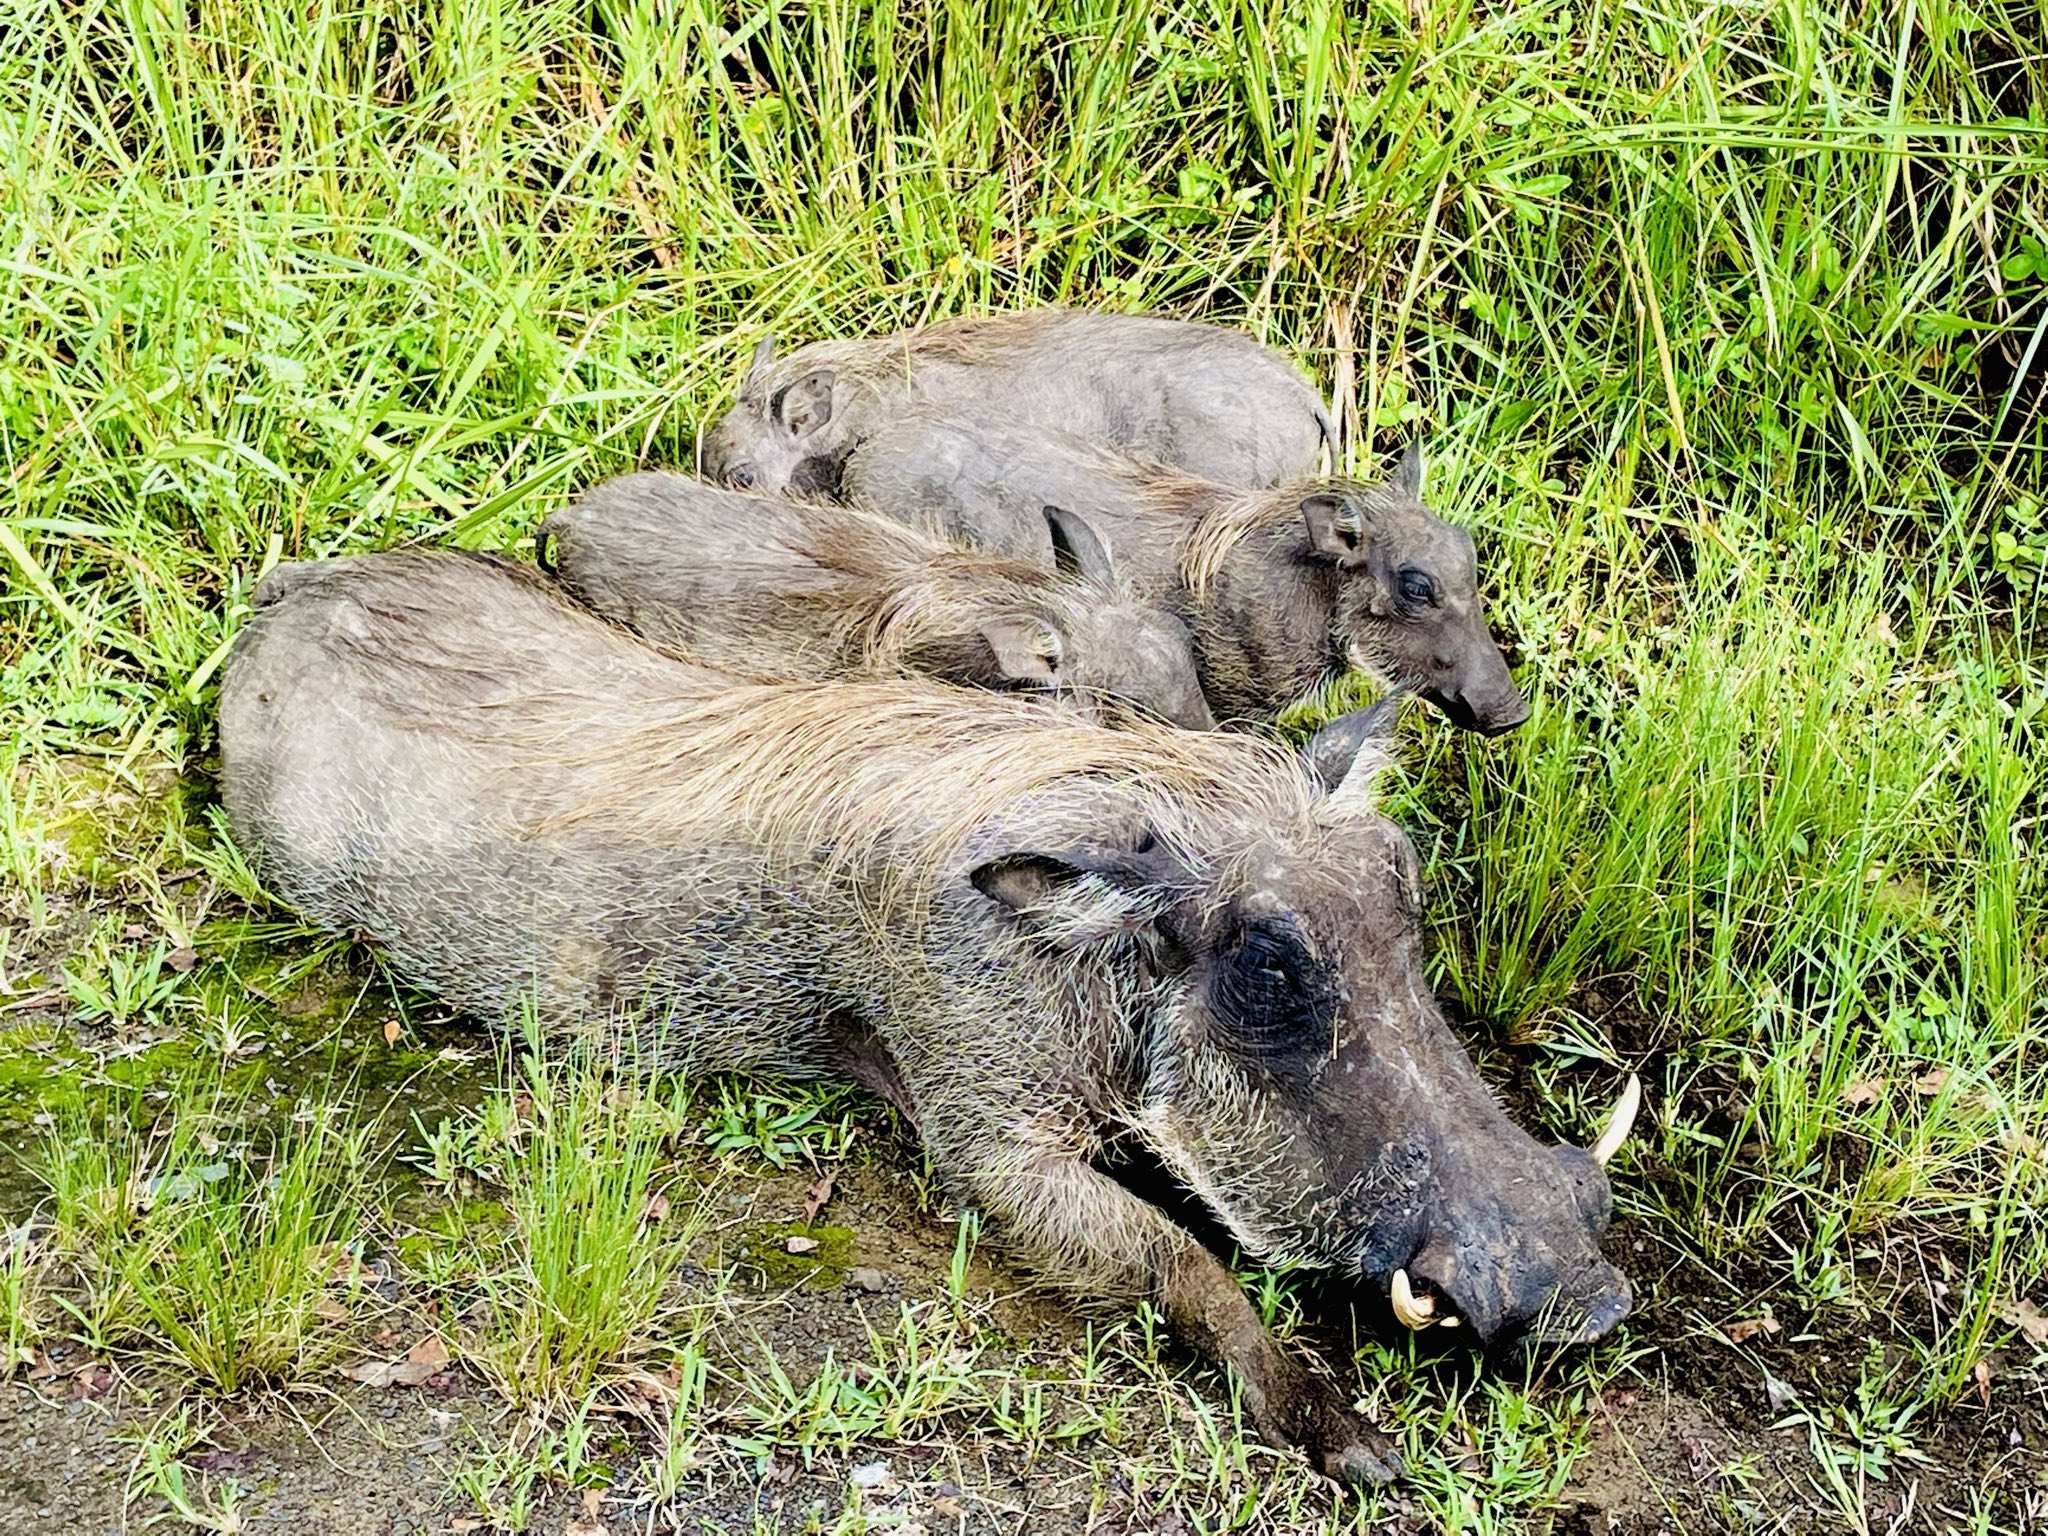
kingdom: Animalia
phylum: Chordata
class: Mammalia
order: Artiodactyla
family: Suidae
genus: Phacochoerus
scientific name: Phacochoerus africanus
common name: Common warthog
